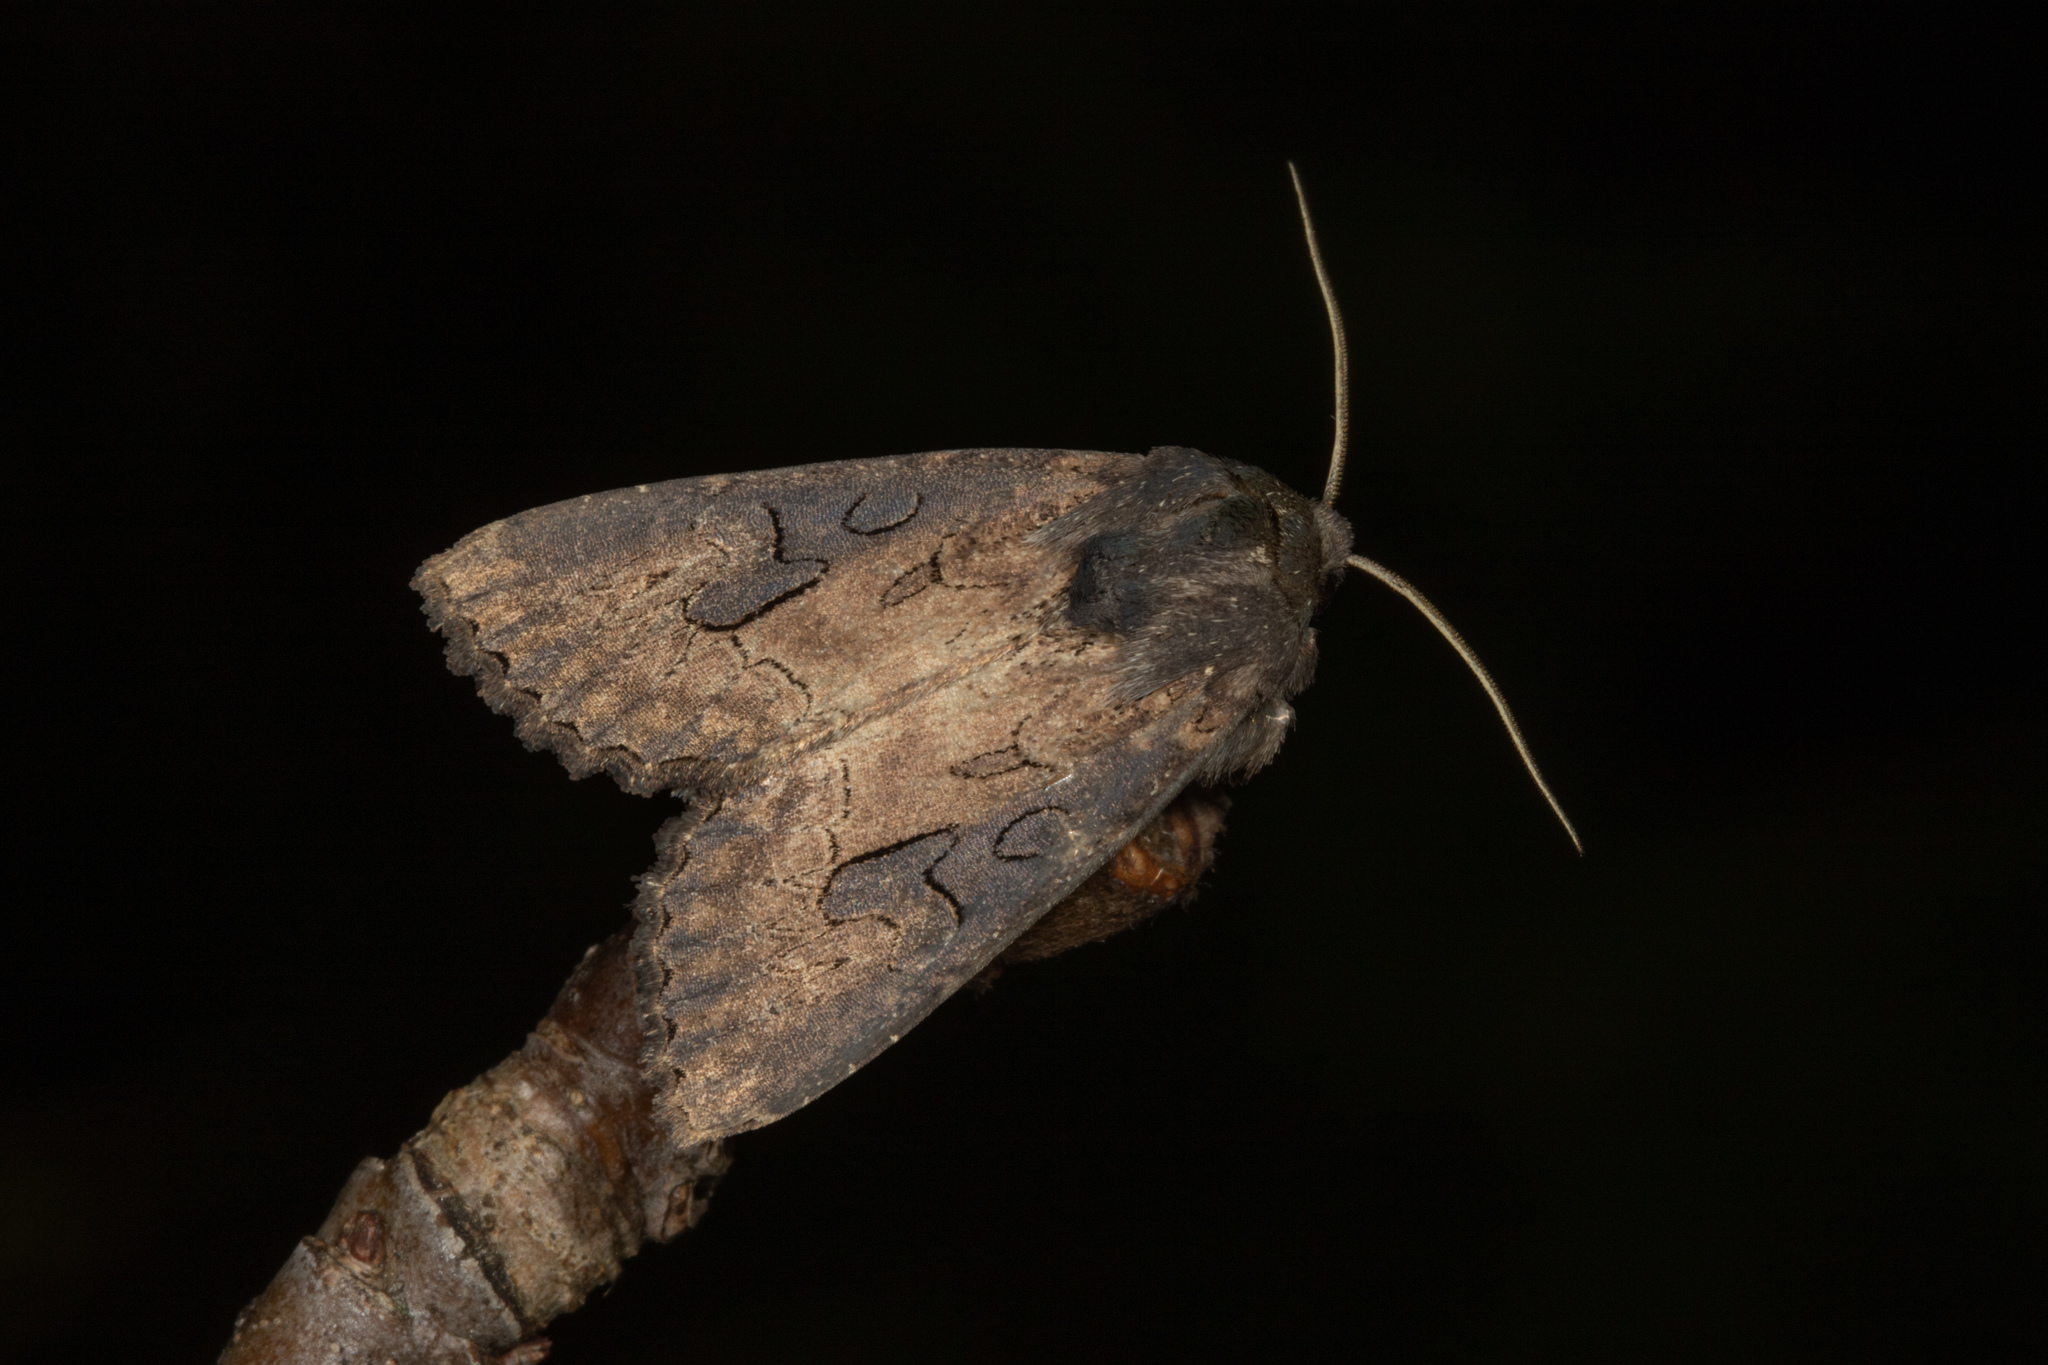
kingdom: Animalia
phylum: Arthropoda
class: Insecta
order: Lepidoptera
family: Noctuidae
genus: Macronoctua
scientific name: Macronoctua onusta
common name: Iris borer
